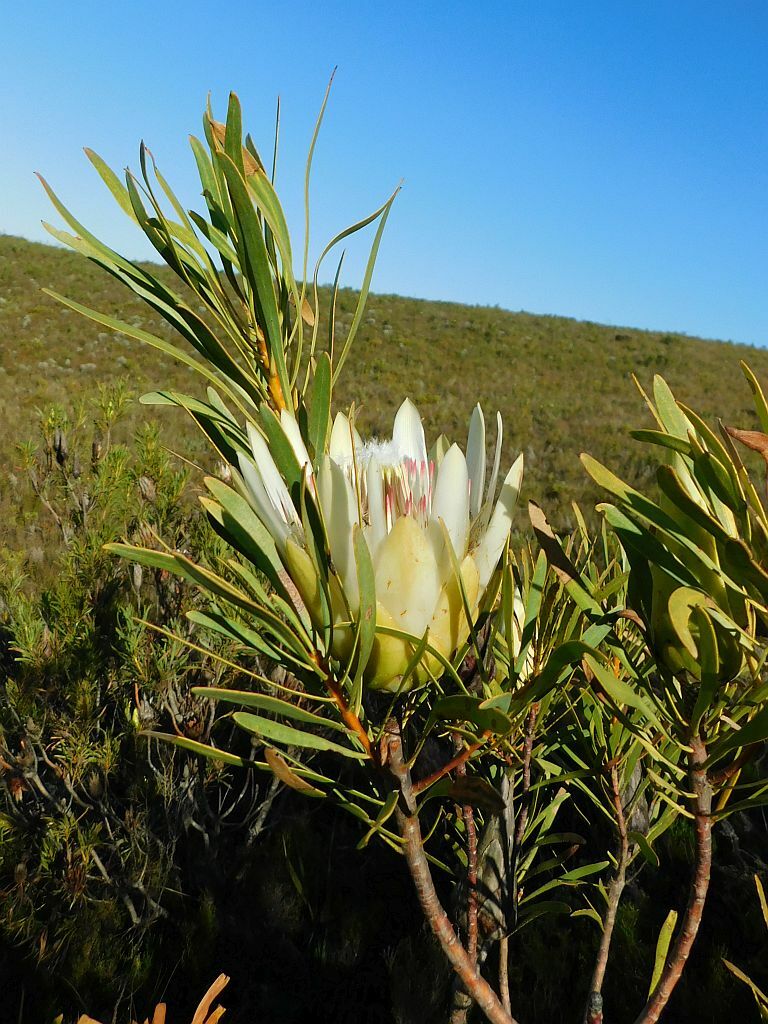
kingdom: Plantae
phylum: Tracheophyta
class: Magnoliopsida
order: Proteales
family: Proteaceae
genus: Protea
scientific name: Protea repens
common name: Sugarbush
